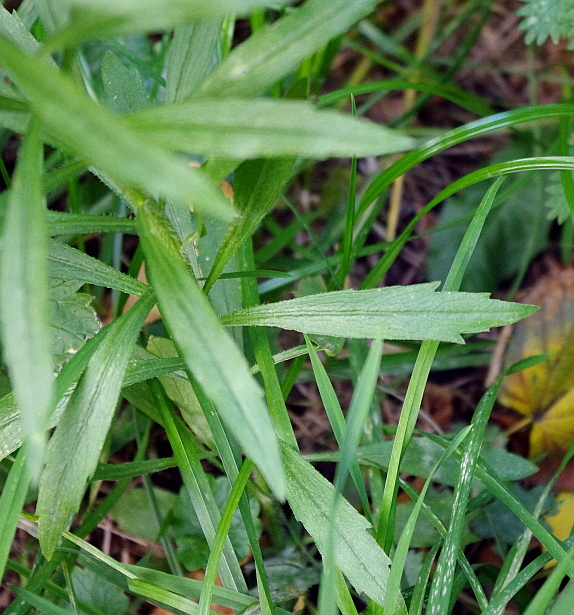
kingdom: Plantae
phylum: Tracheophyta
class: Magnoliopsida
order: Asterales
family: Asteraceae
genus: Erigeron
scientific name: Erigeron canadensis
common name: Canadian fleabane
